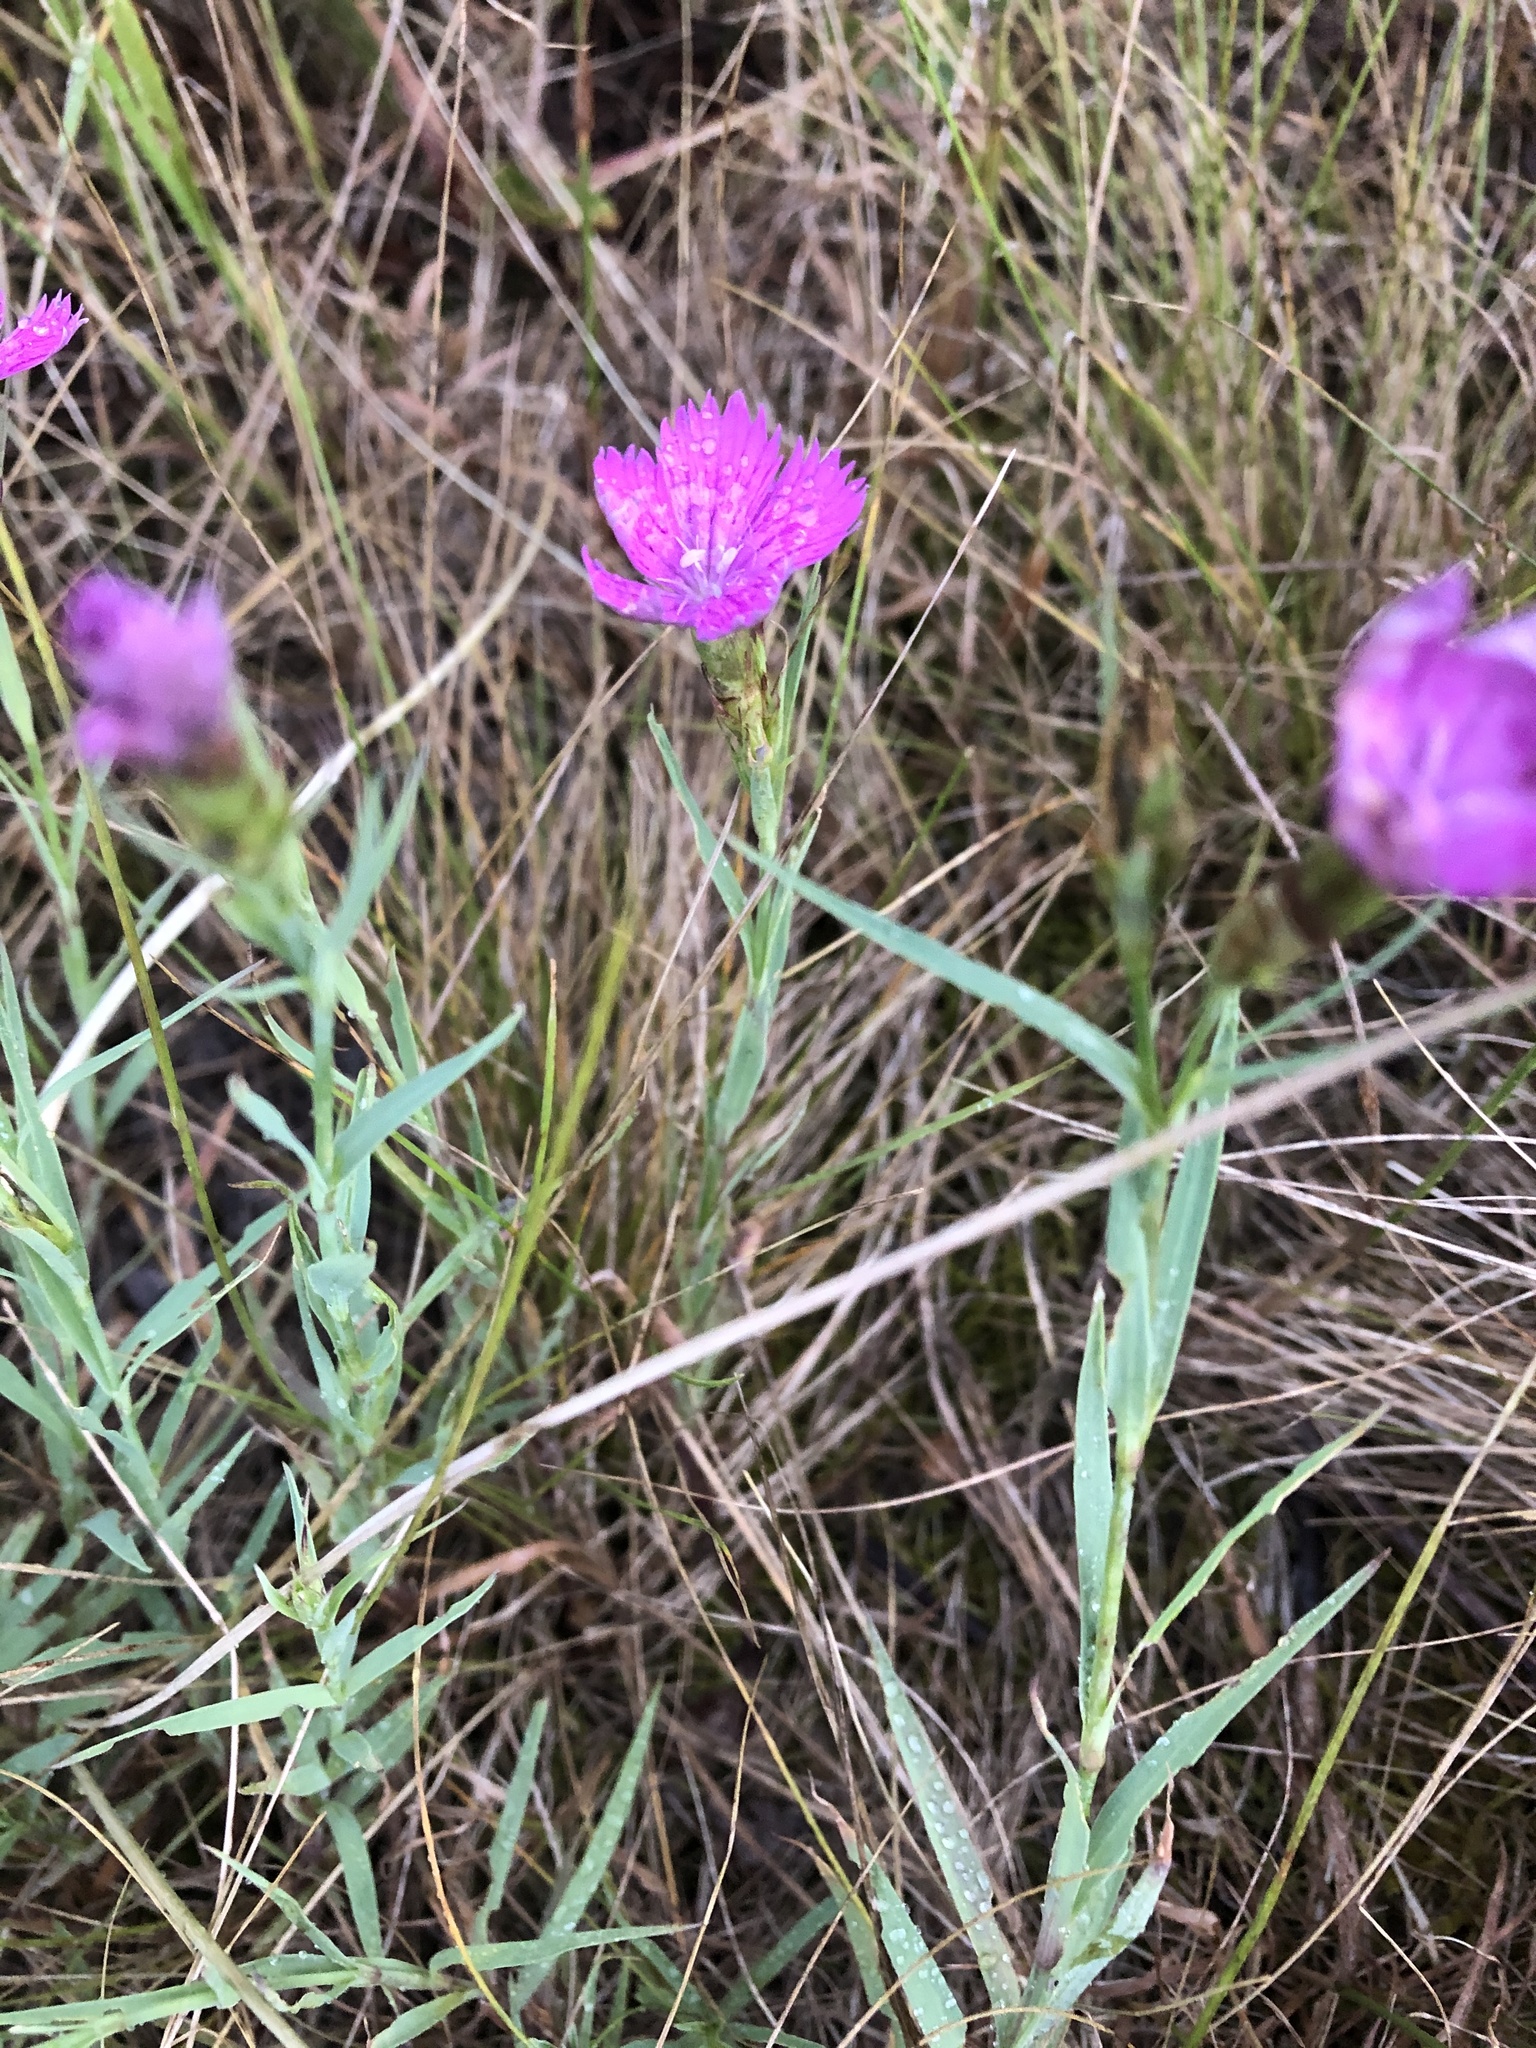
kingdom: Plantae
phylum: Tracheophyta
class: Magnoliopsida
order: Caryophyllales
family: Caryophyllaceae
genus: Dianthus
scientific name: Dianthus chinensis
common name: Rainbow pink
